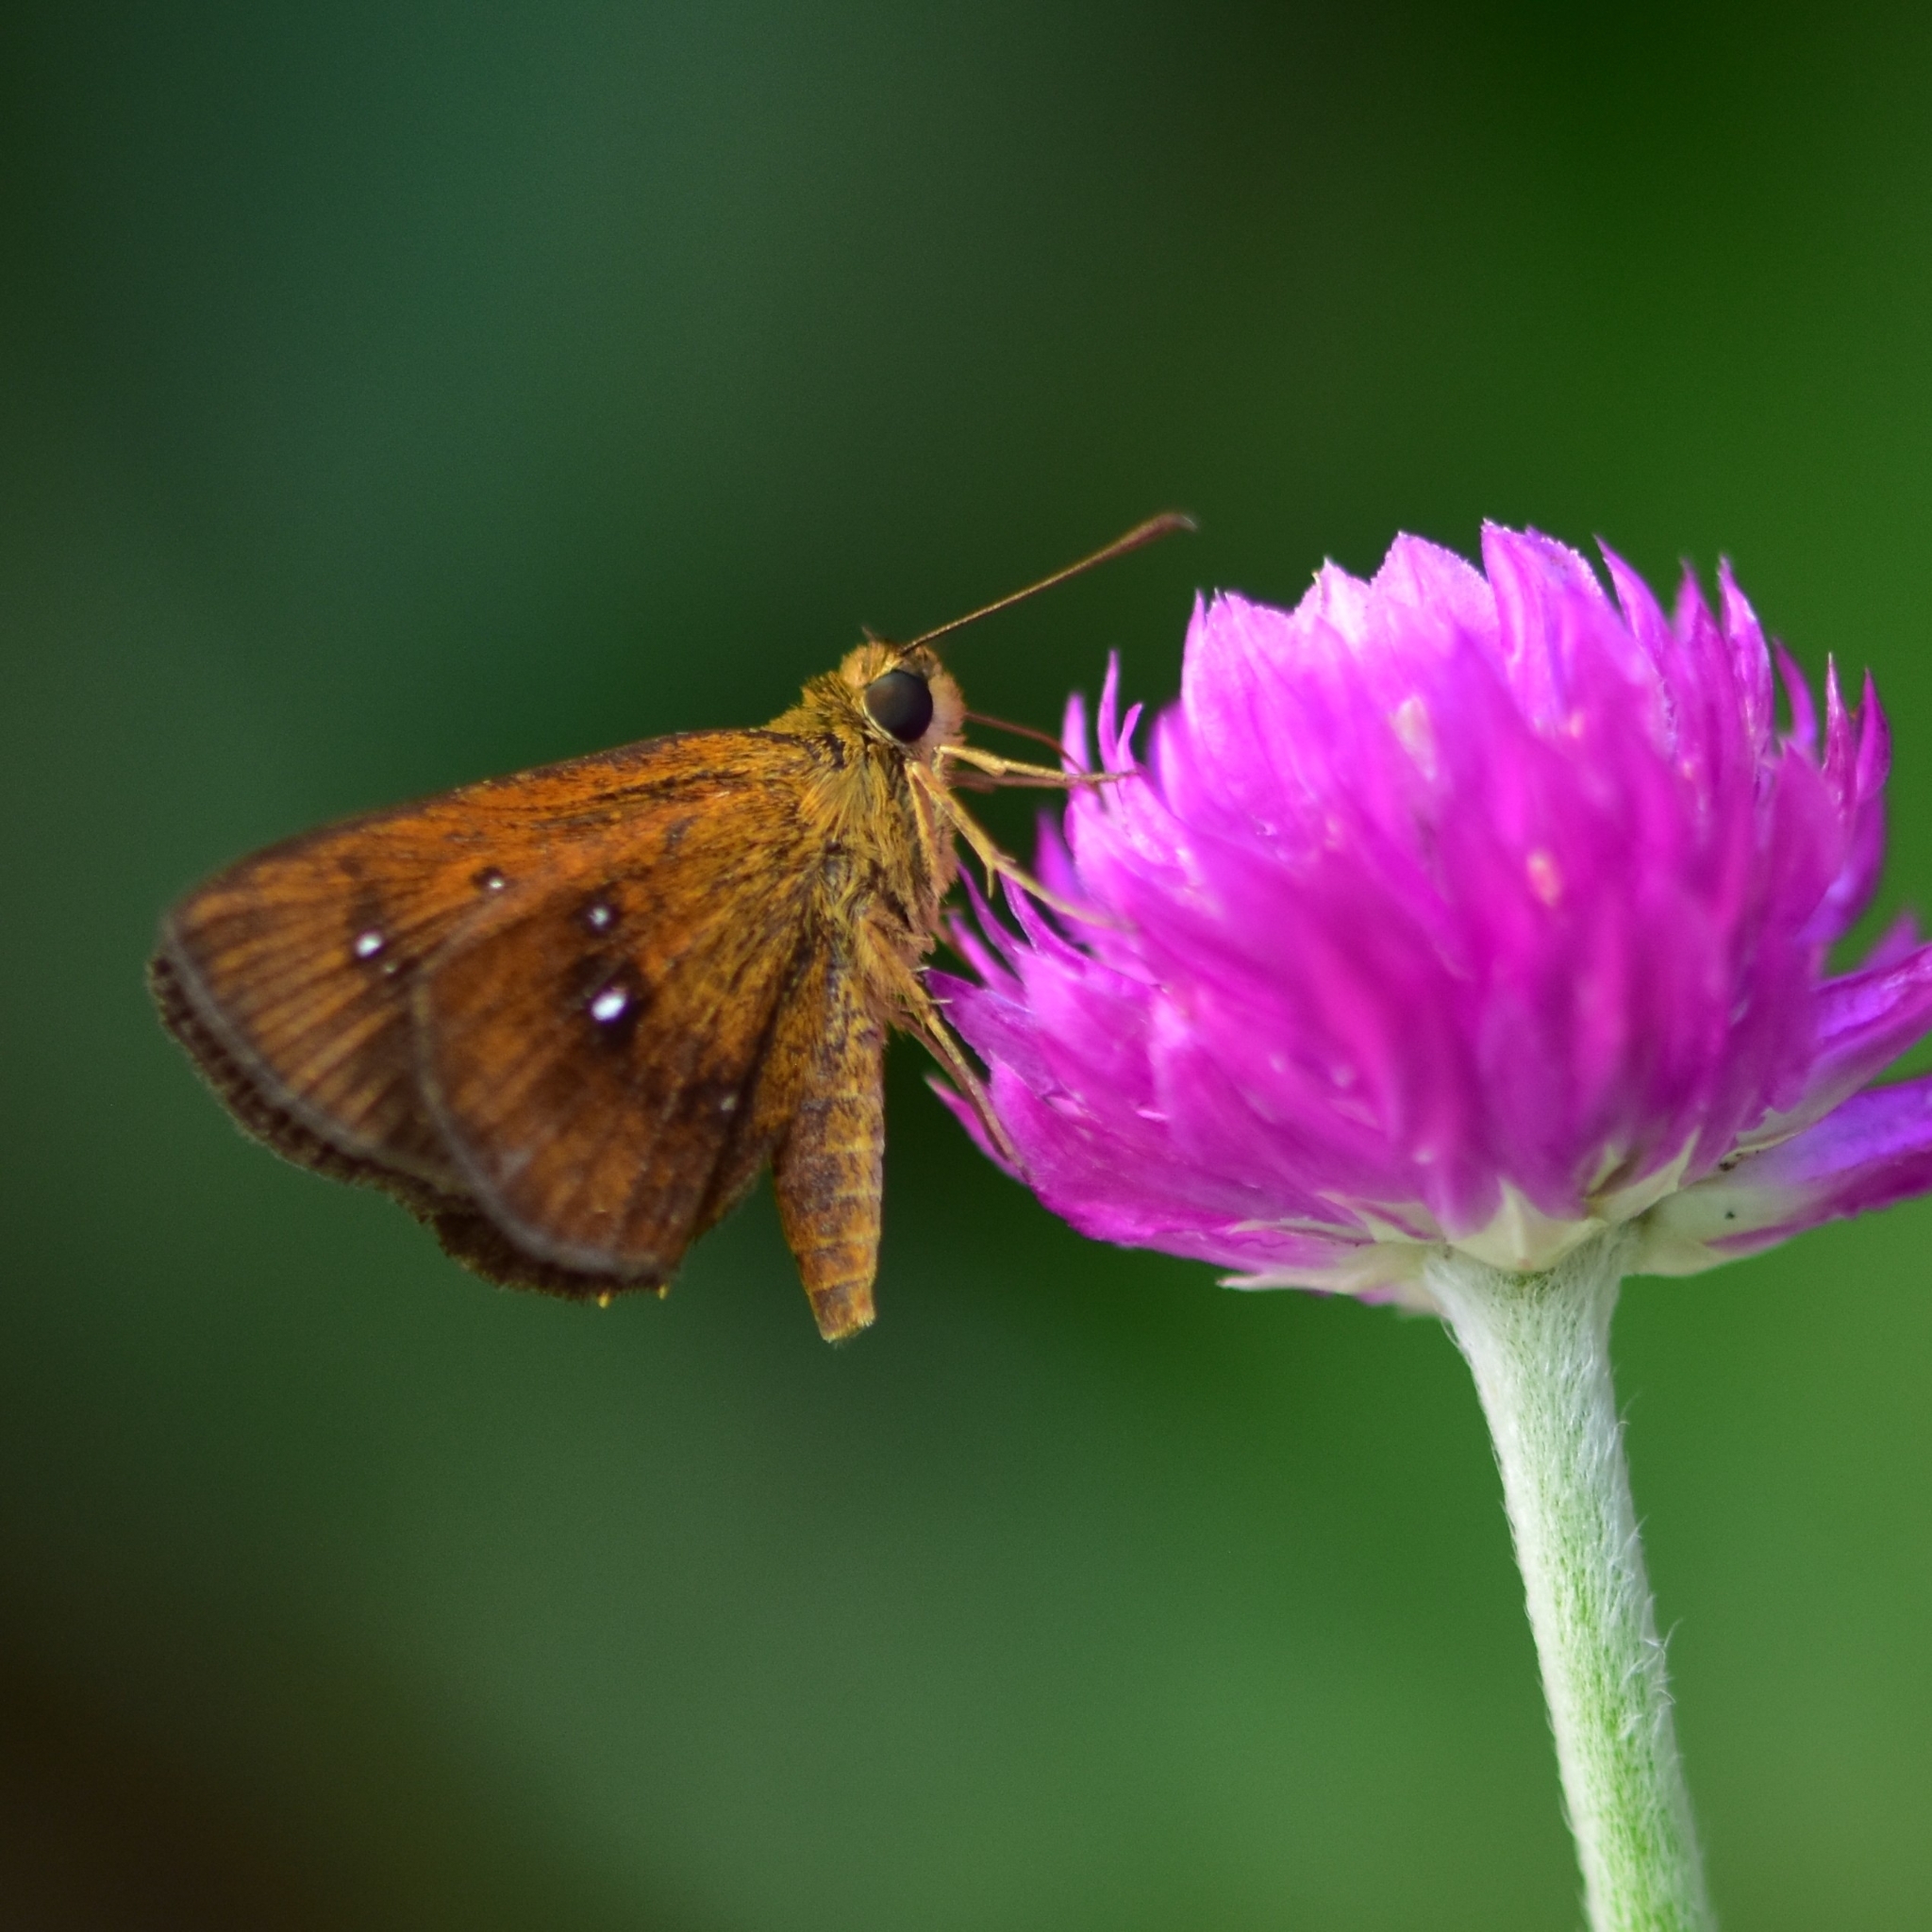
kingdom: Animalia
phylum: Arthropoda
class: Insecta
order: Lepidoptera
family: Hesperiidae
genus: Iambrix
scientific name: Iambrix salsala
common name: Chestnut bob
